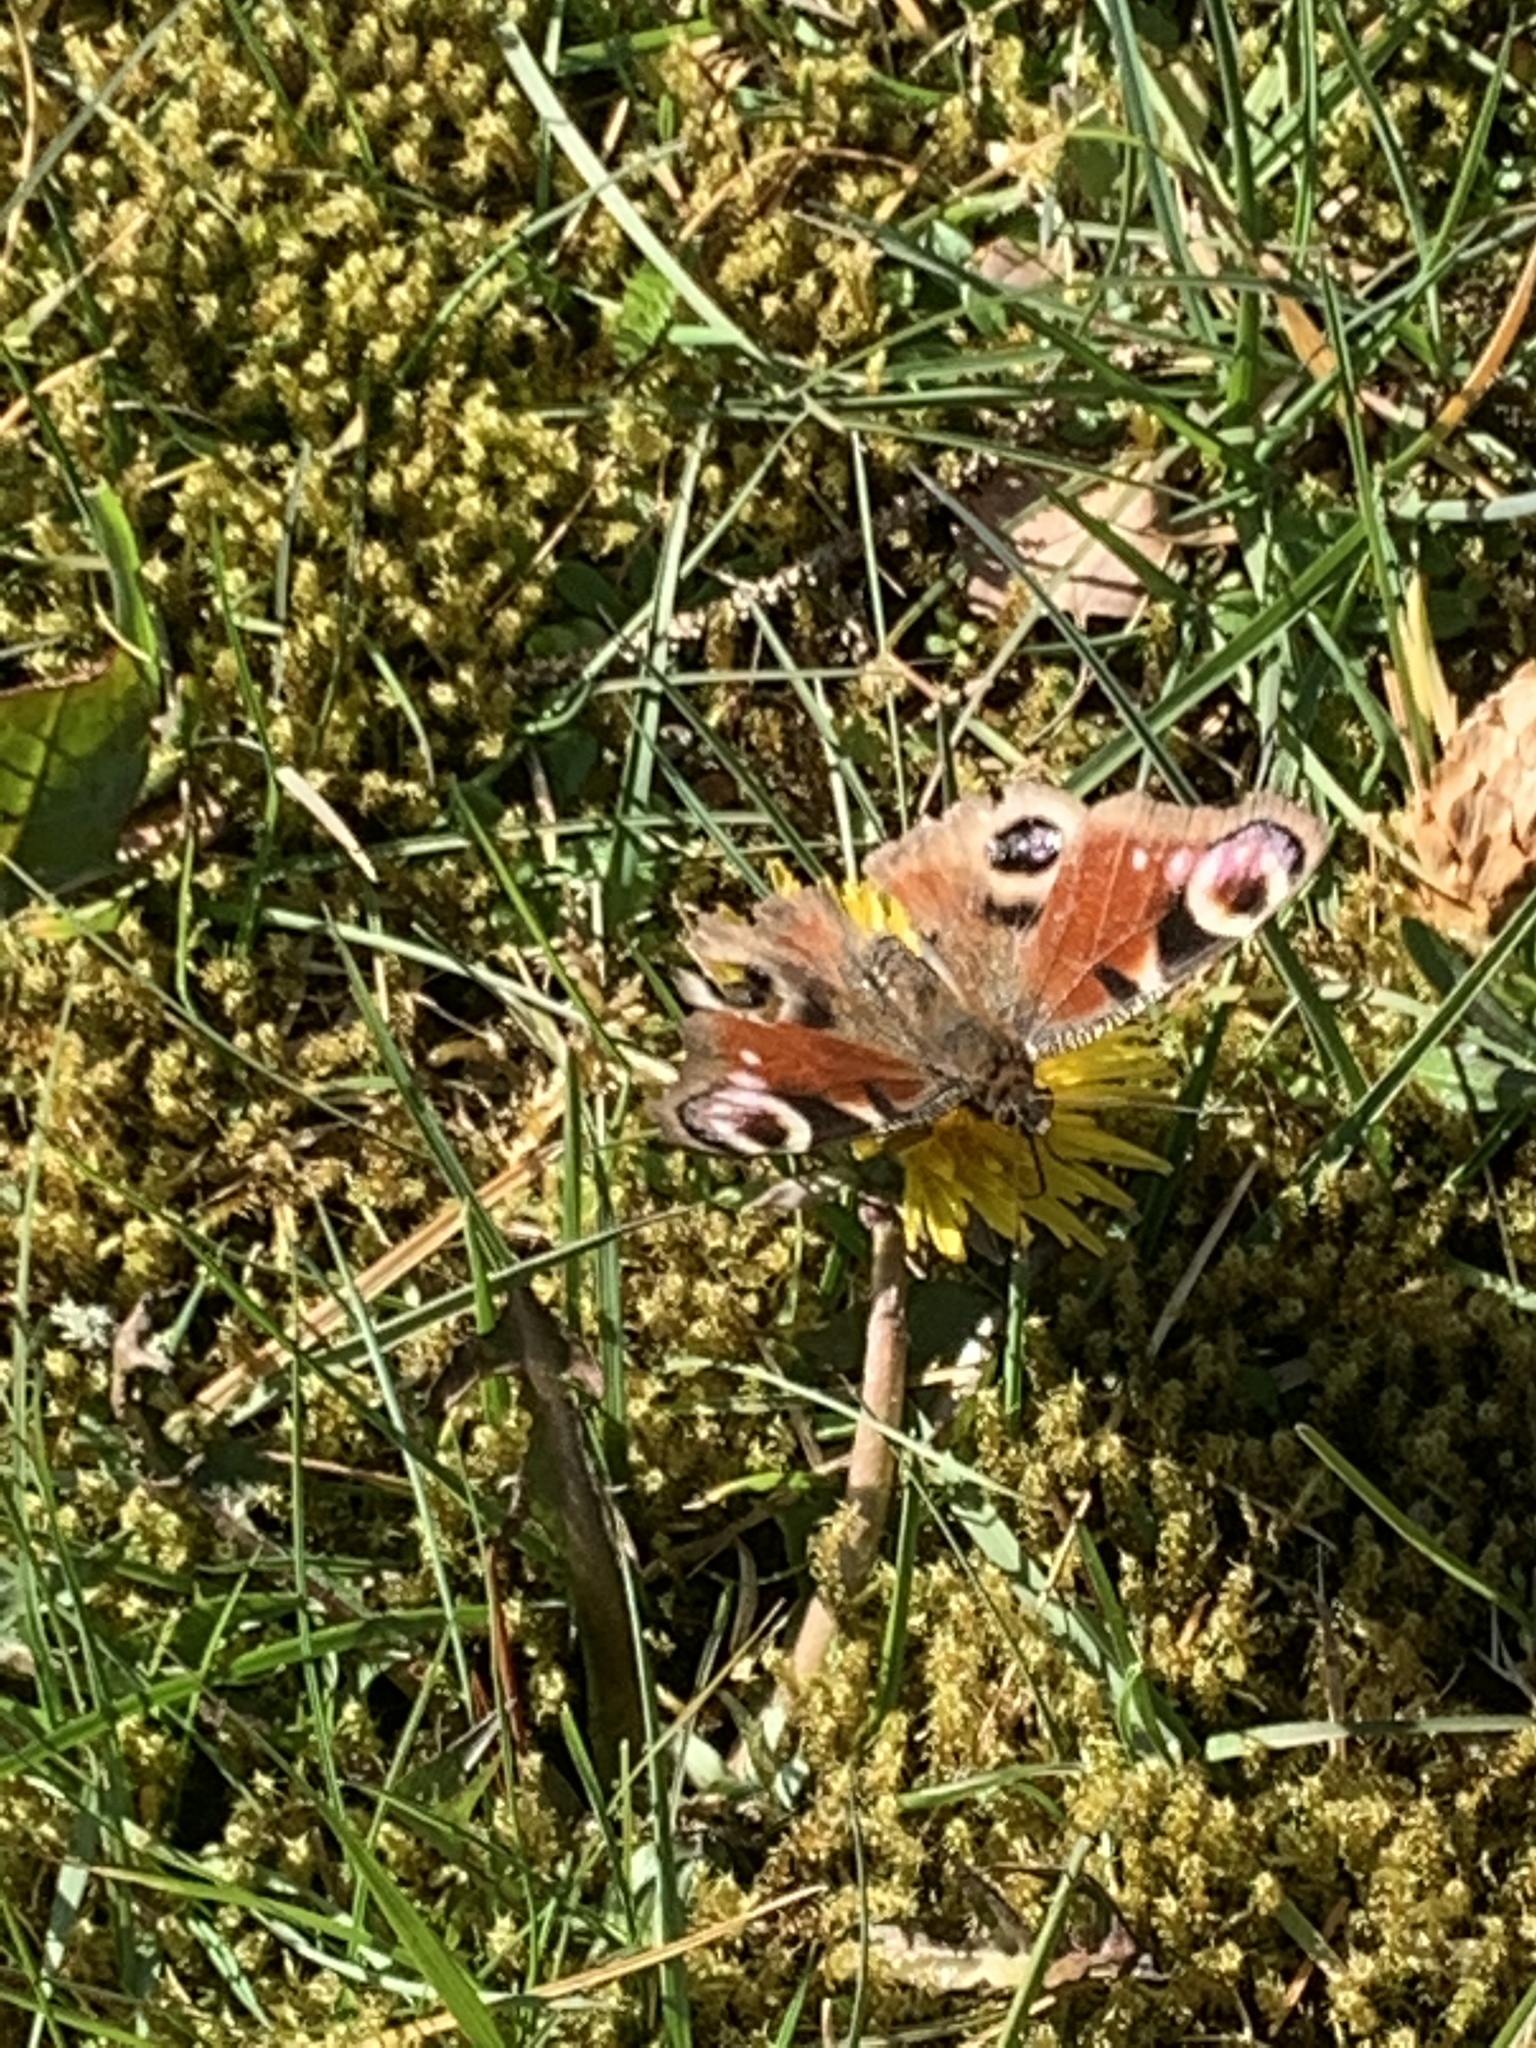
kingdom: Animalia
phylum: Arthropoda
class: Insecta
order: Lepidoptera
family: Nymphalidae
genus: Aglais
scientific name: Aglais io
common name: Peacock
